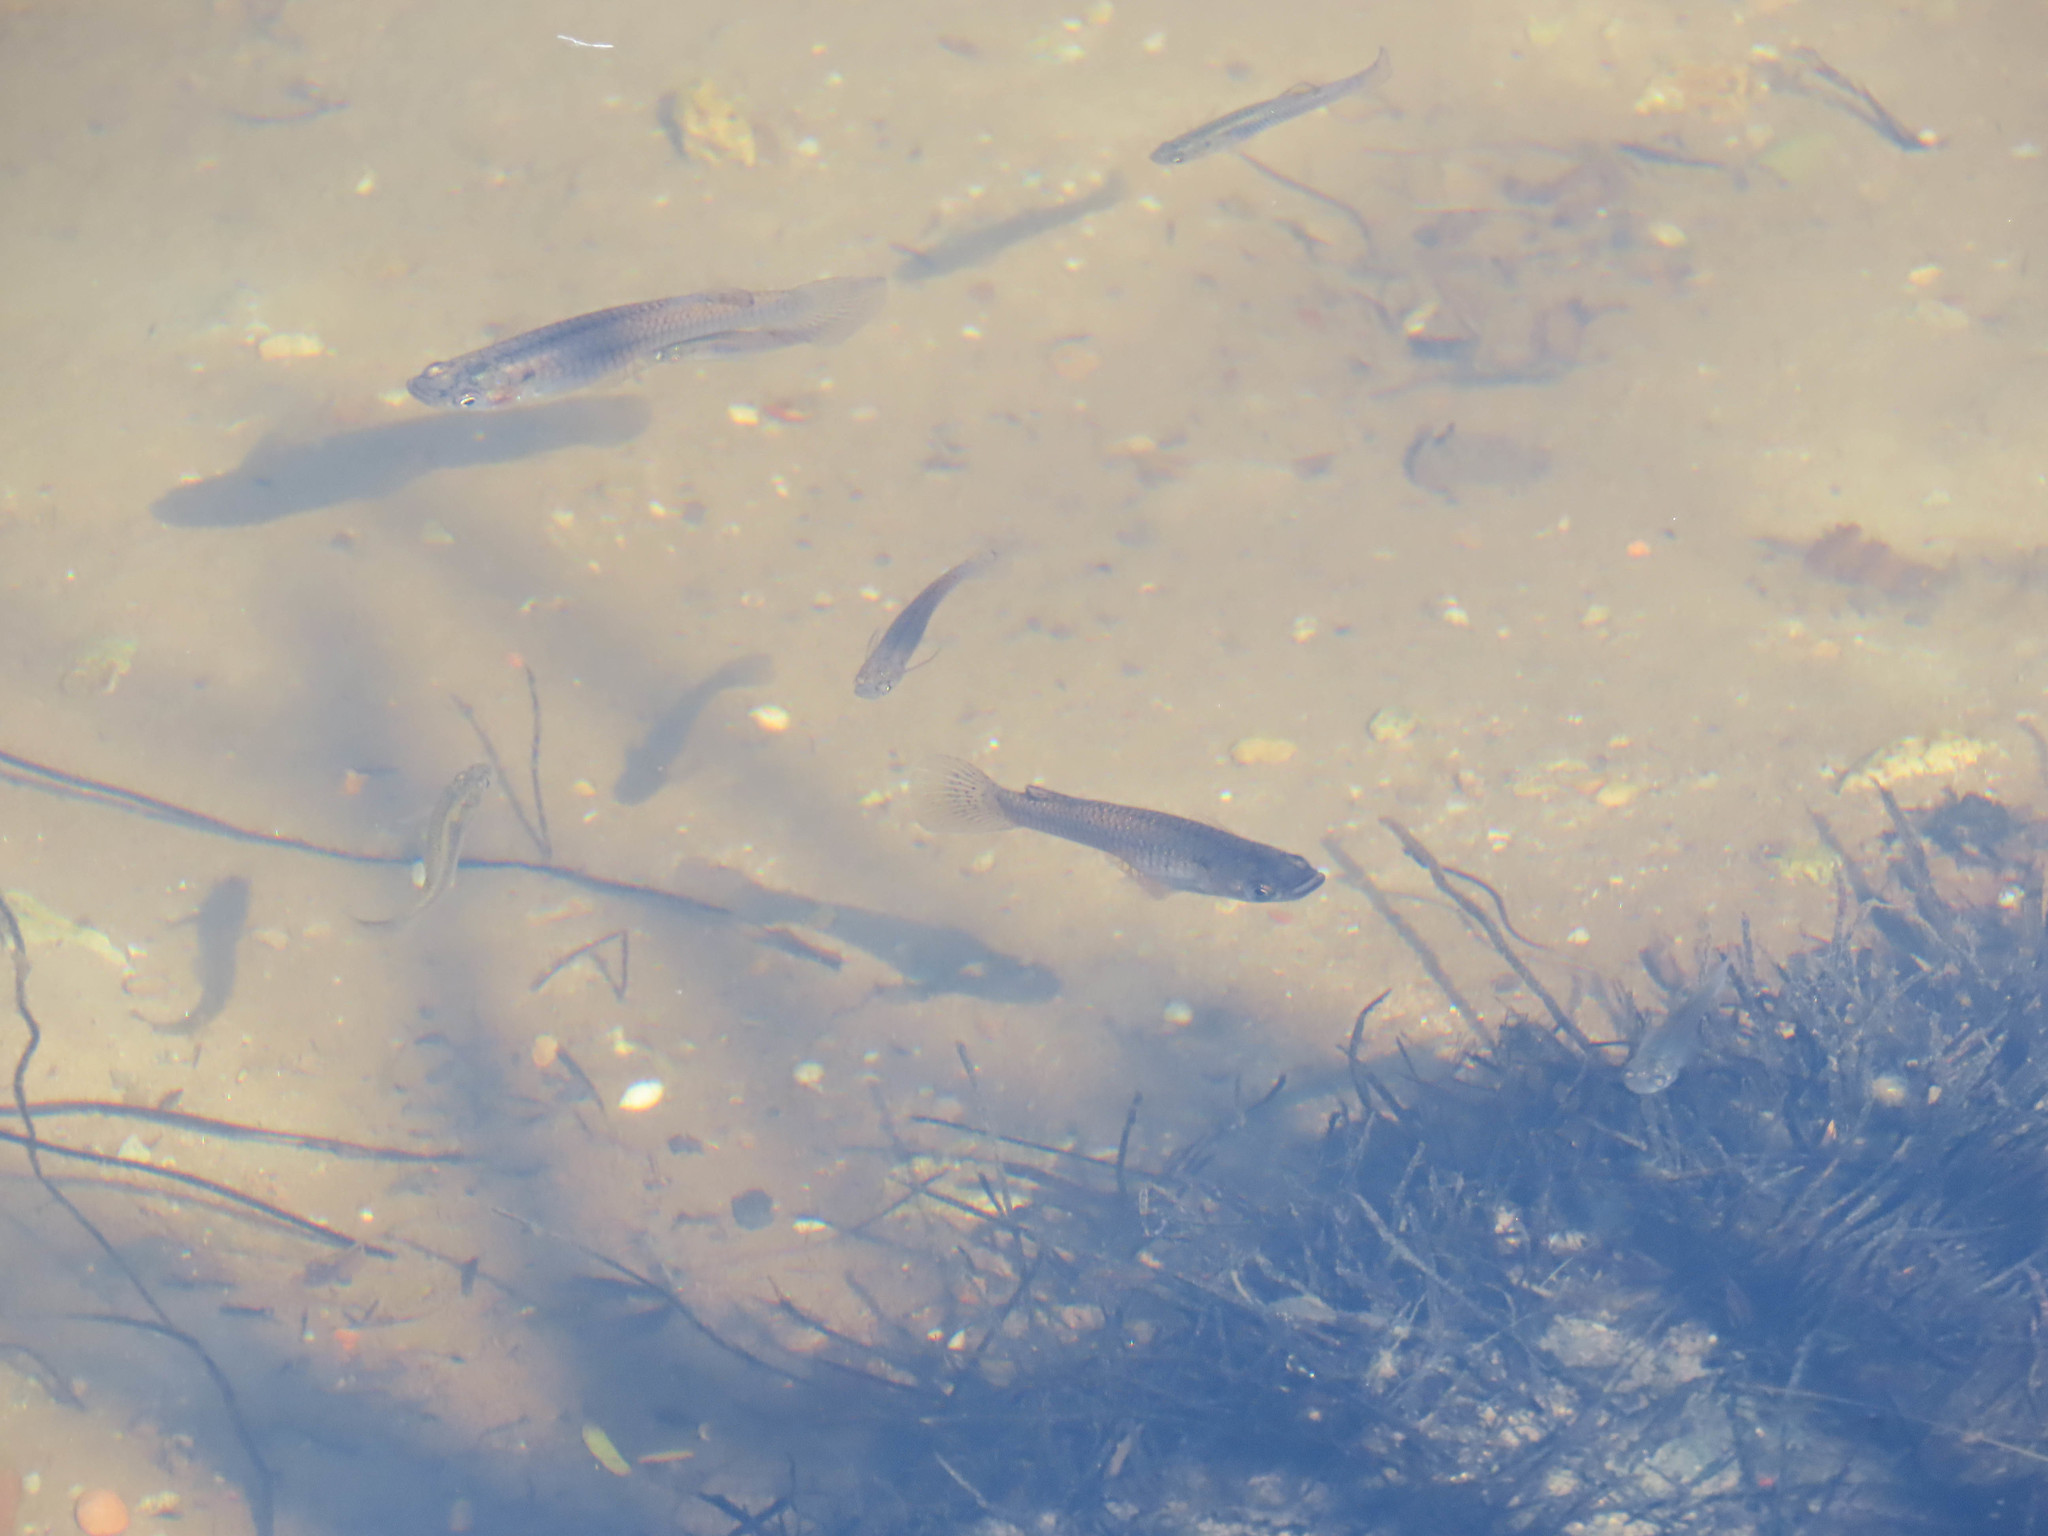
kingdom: Animalia
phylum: Chordata
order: Cyprinodontiformes
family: Poeciliidae
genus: Gambusia
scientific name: Gambusia affinis
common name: Mosquitofish
